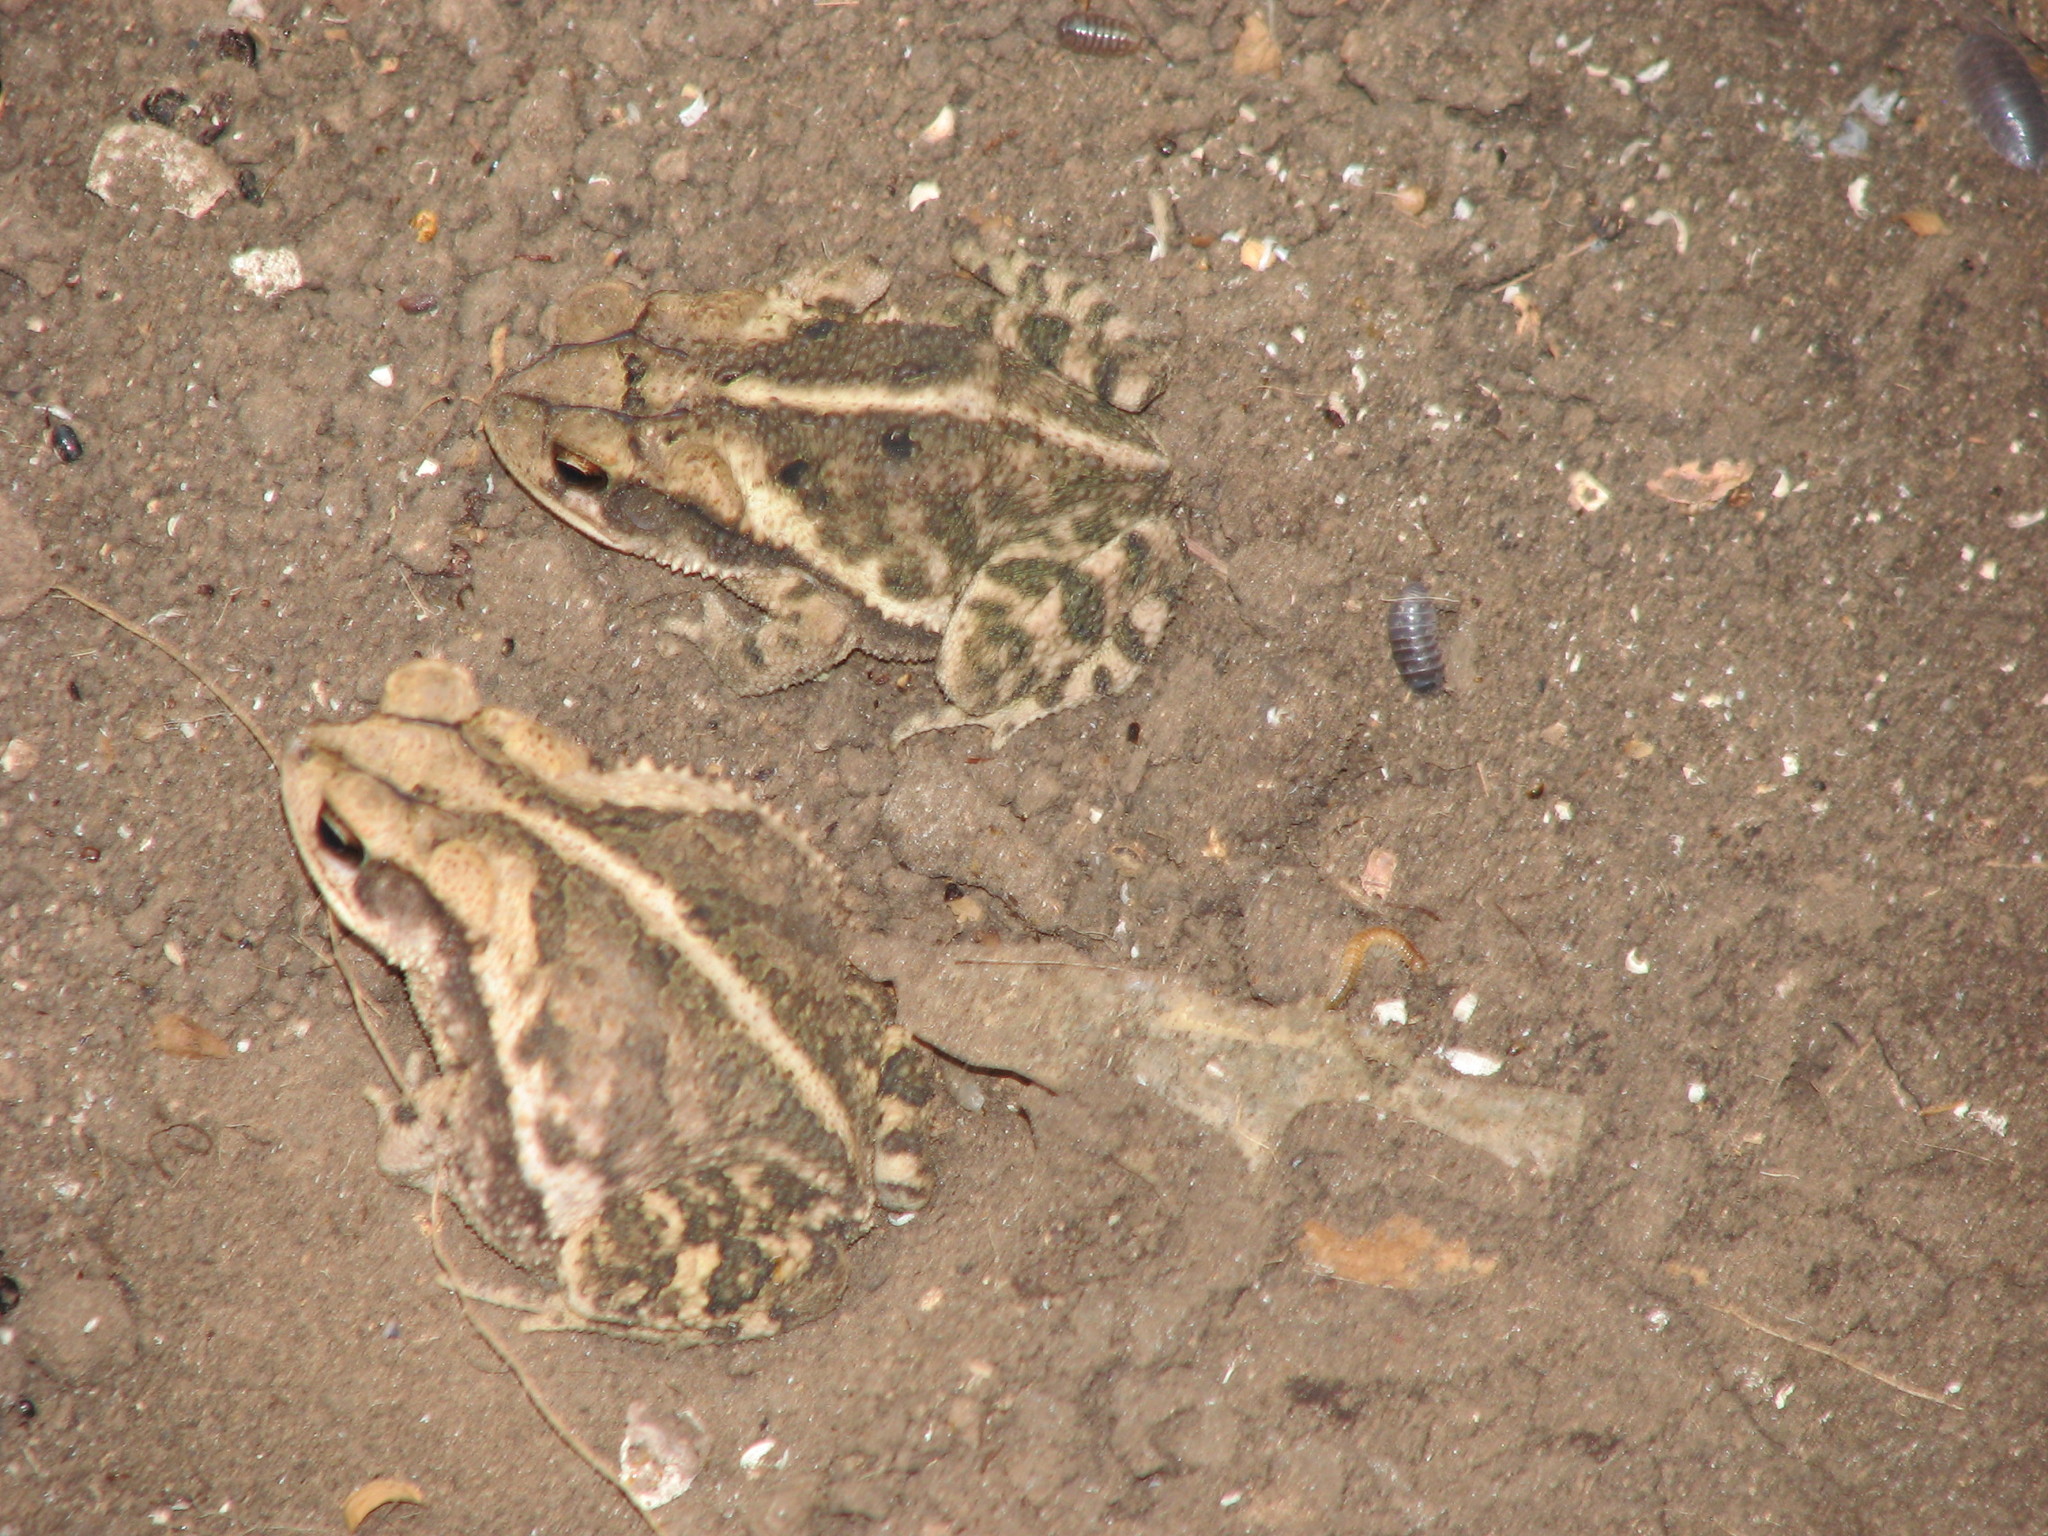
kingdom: Animalia
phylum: Chordata
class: Amphibia
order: Anura
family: Bufonidae
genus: Incilius
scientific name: Incilius nebulifer
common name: Gulf coast toad
